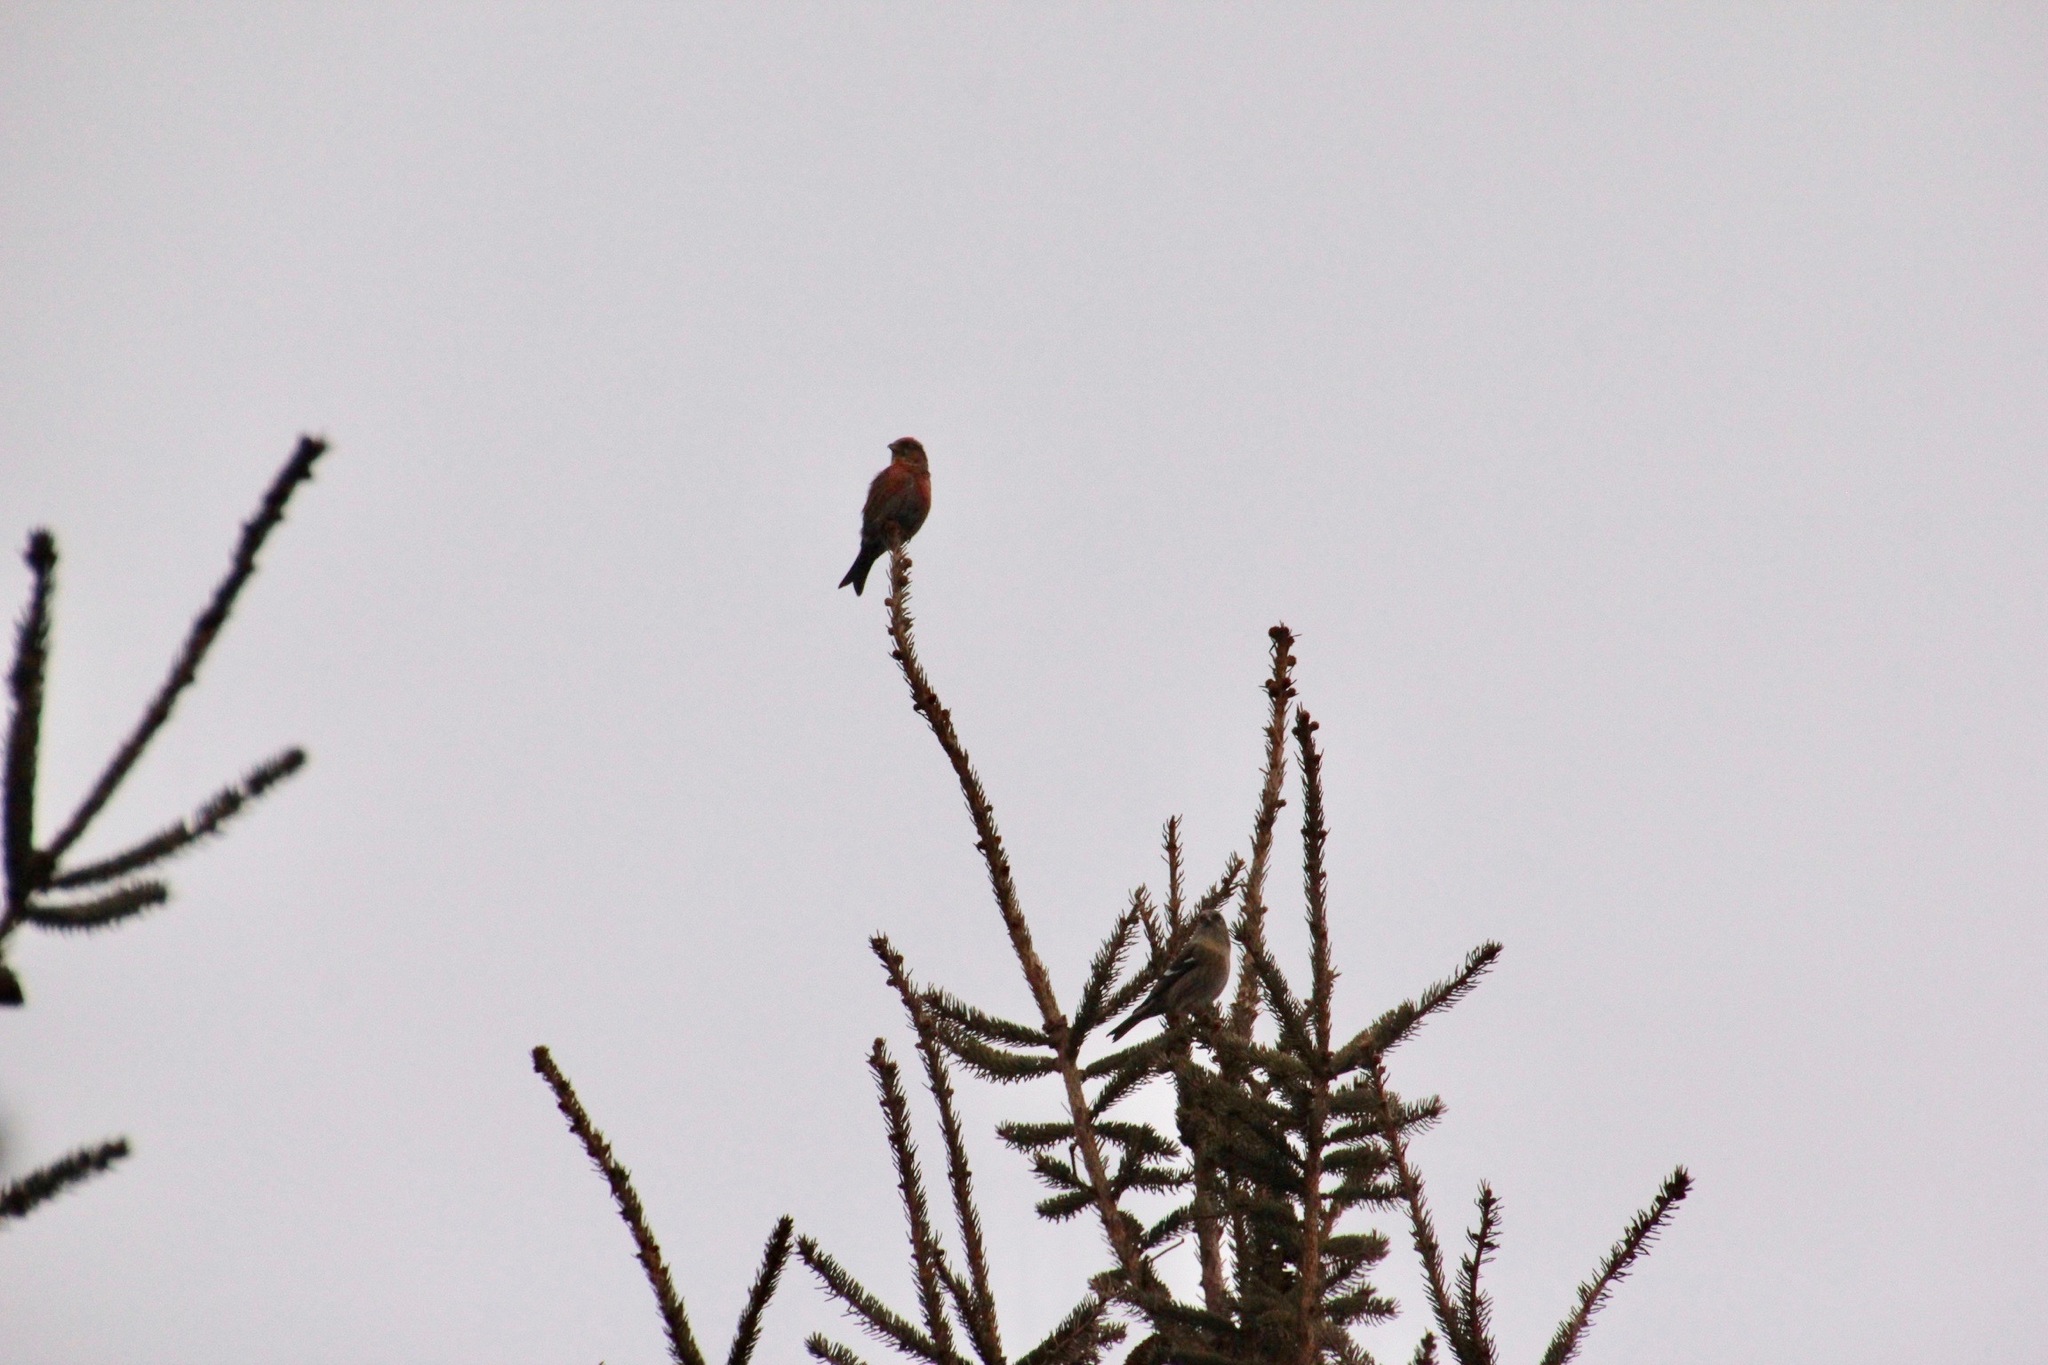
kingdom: Animalia
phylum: Chordata
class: Aves
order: Passeriformes
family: Fringillidae
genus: Loxia
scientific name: Loxia leucoptera
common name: Two-barred crossbill
